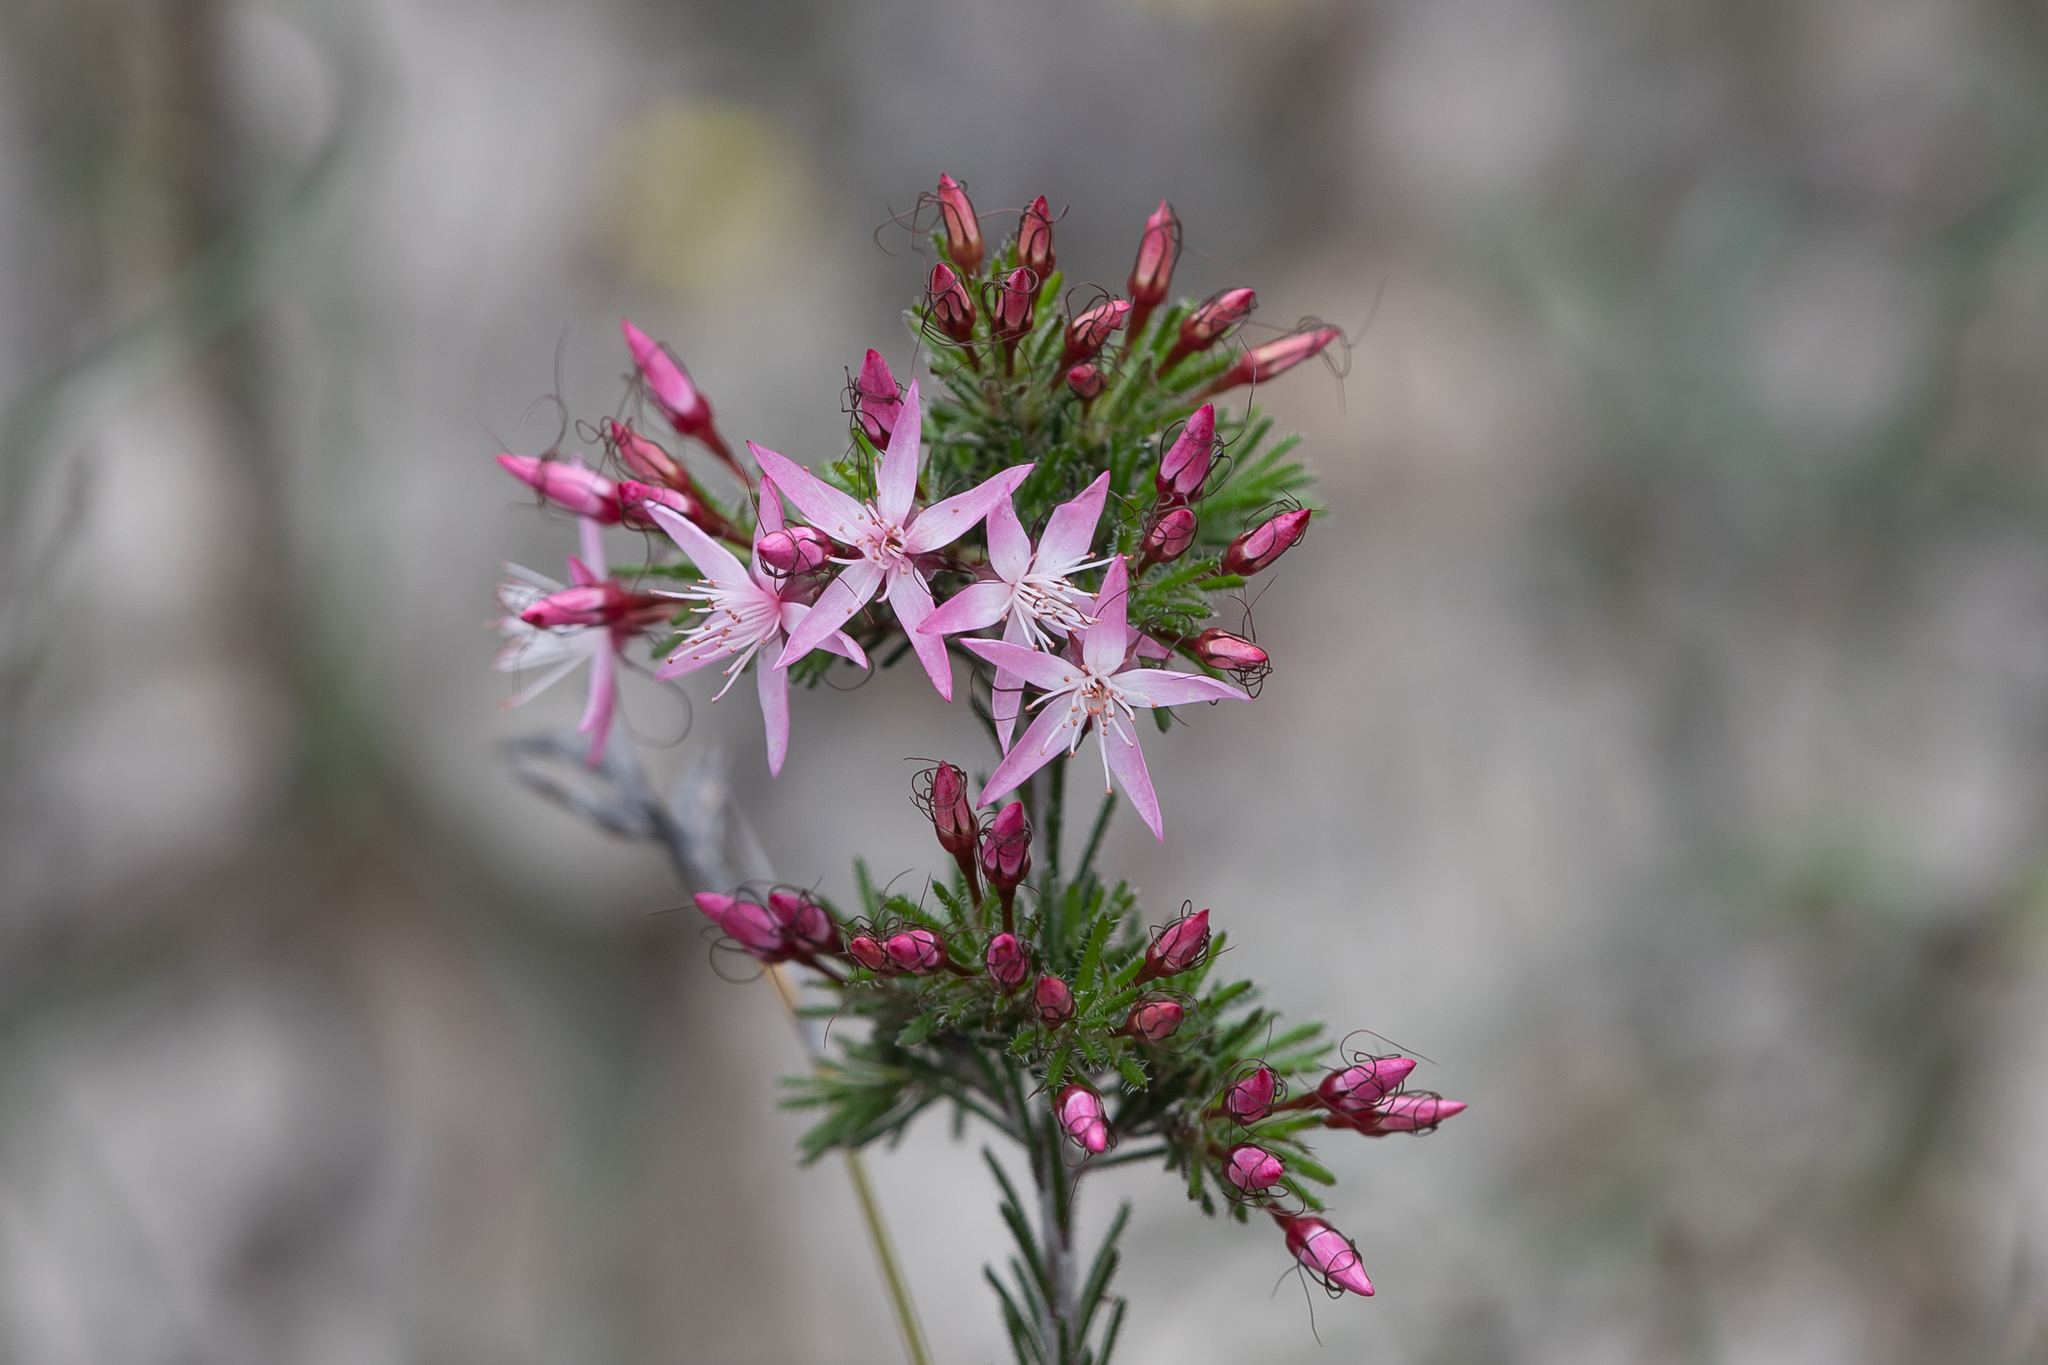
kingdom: Plantae
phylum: Tracheophyta
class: Magnoliopsida
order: Myrtales
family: Myrtaceae
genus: Calytrix
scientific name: Calytrix tetragona
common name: Common fringe myrtle
